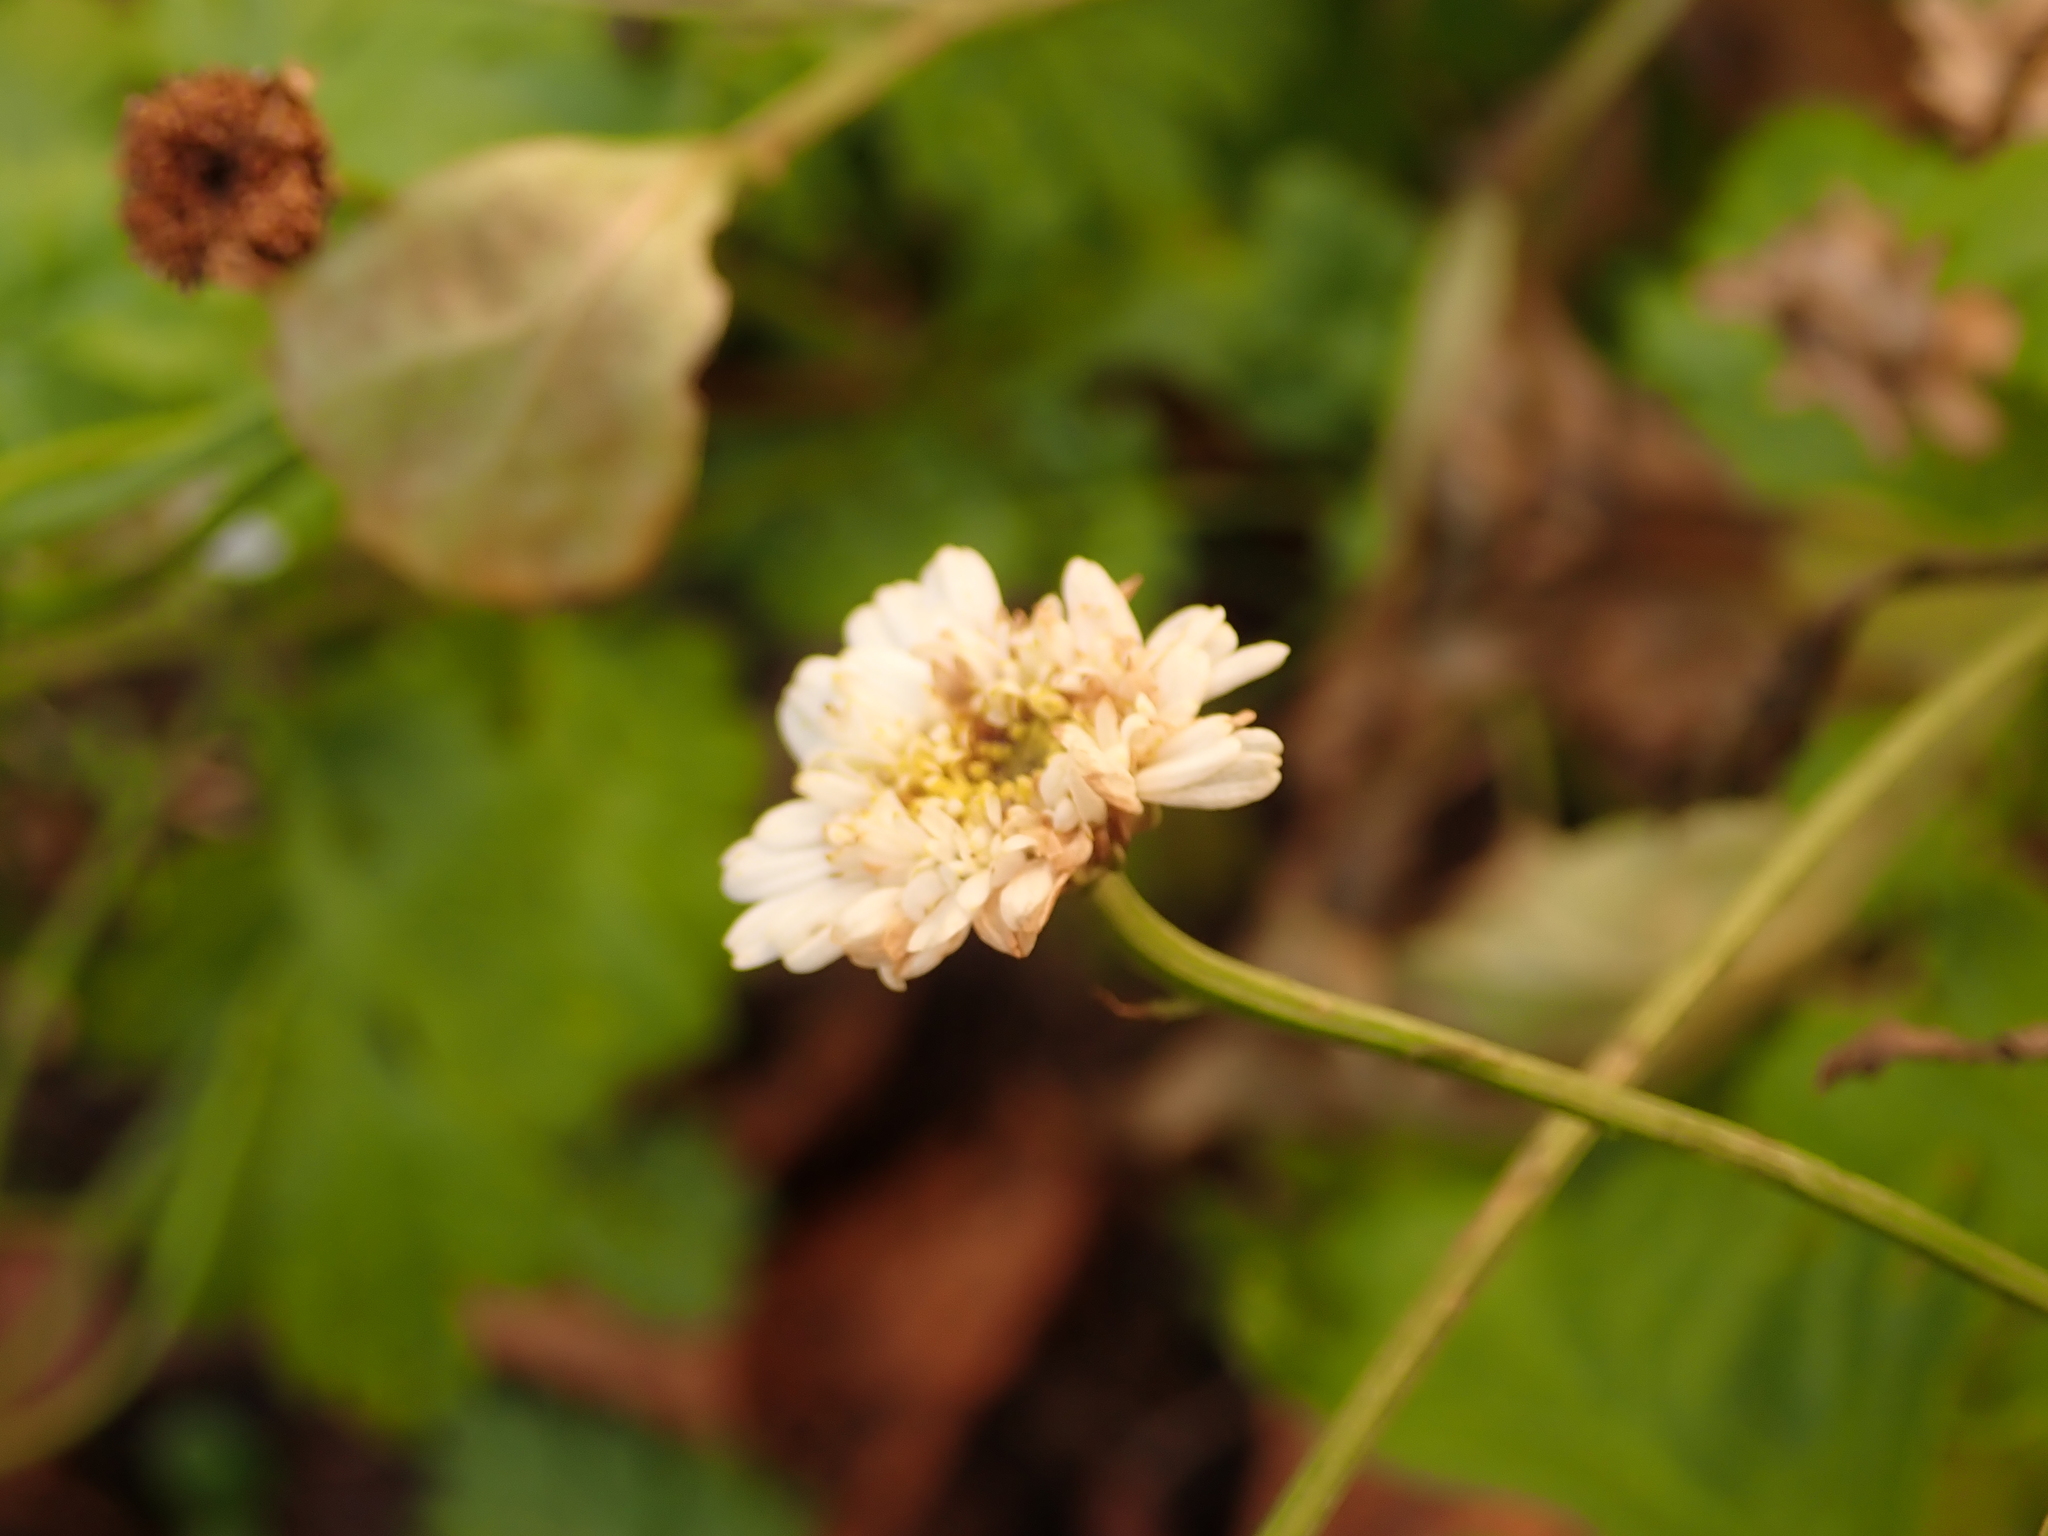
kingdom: Plantae
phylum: Tracheophyta
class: Magnoliopsida
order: Asterales
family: Asteraceae
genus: Tanacetum
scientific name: Tanacetum parthenium
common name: Feverfew
